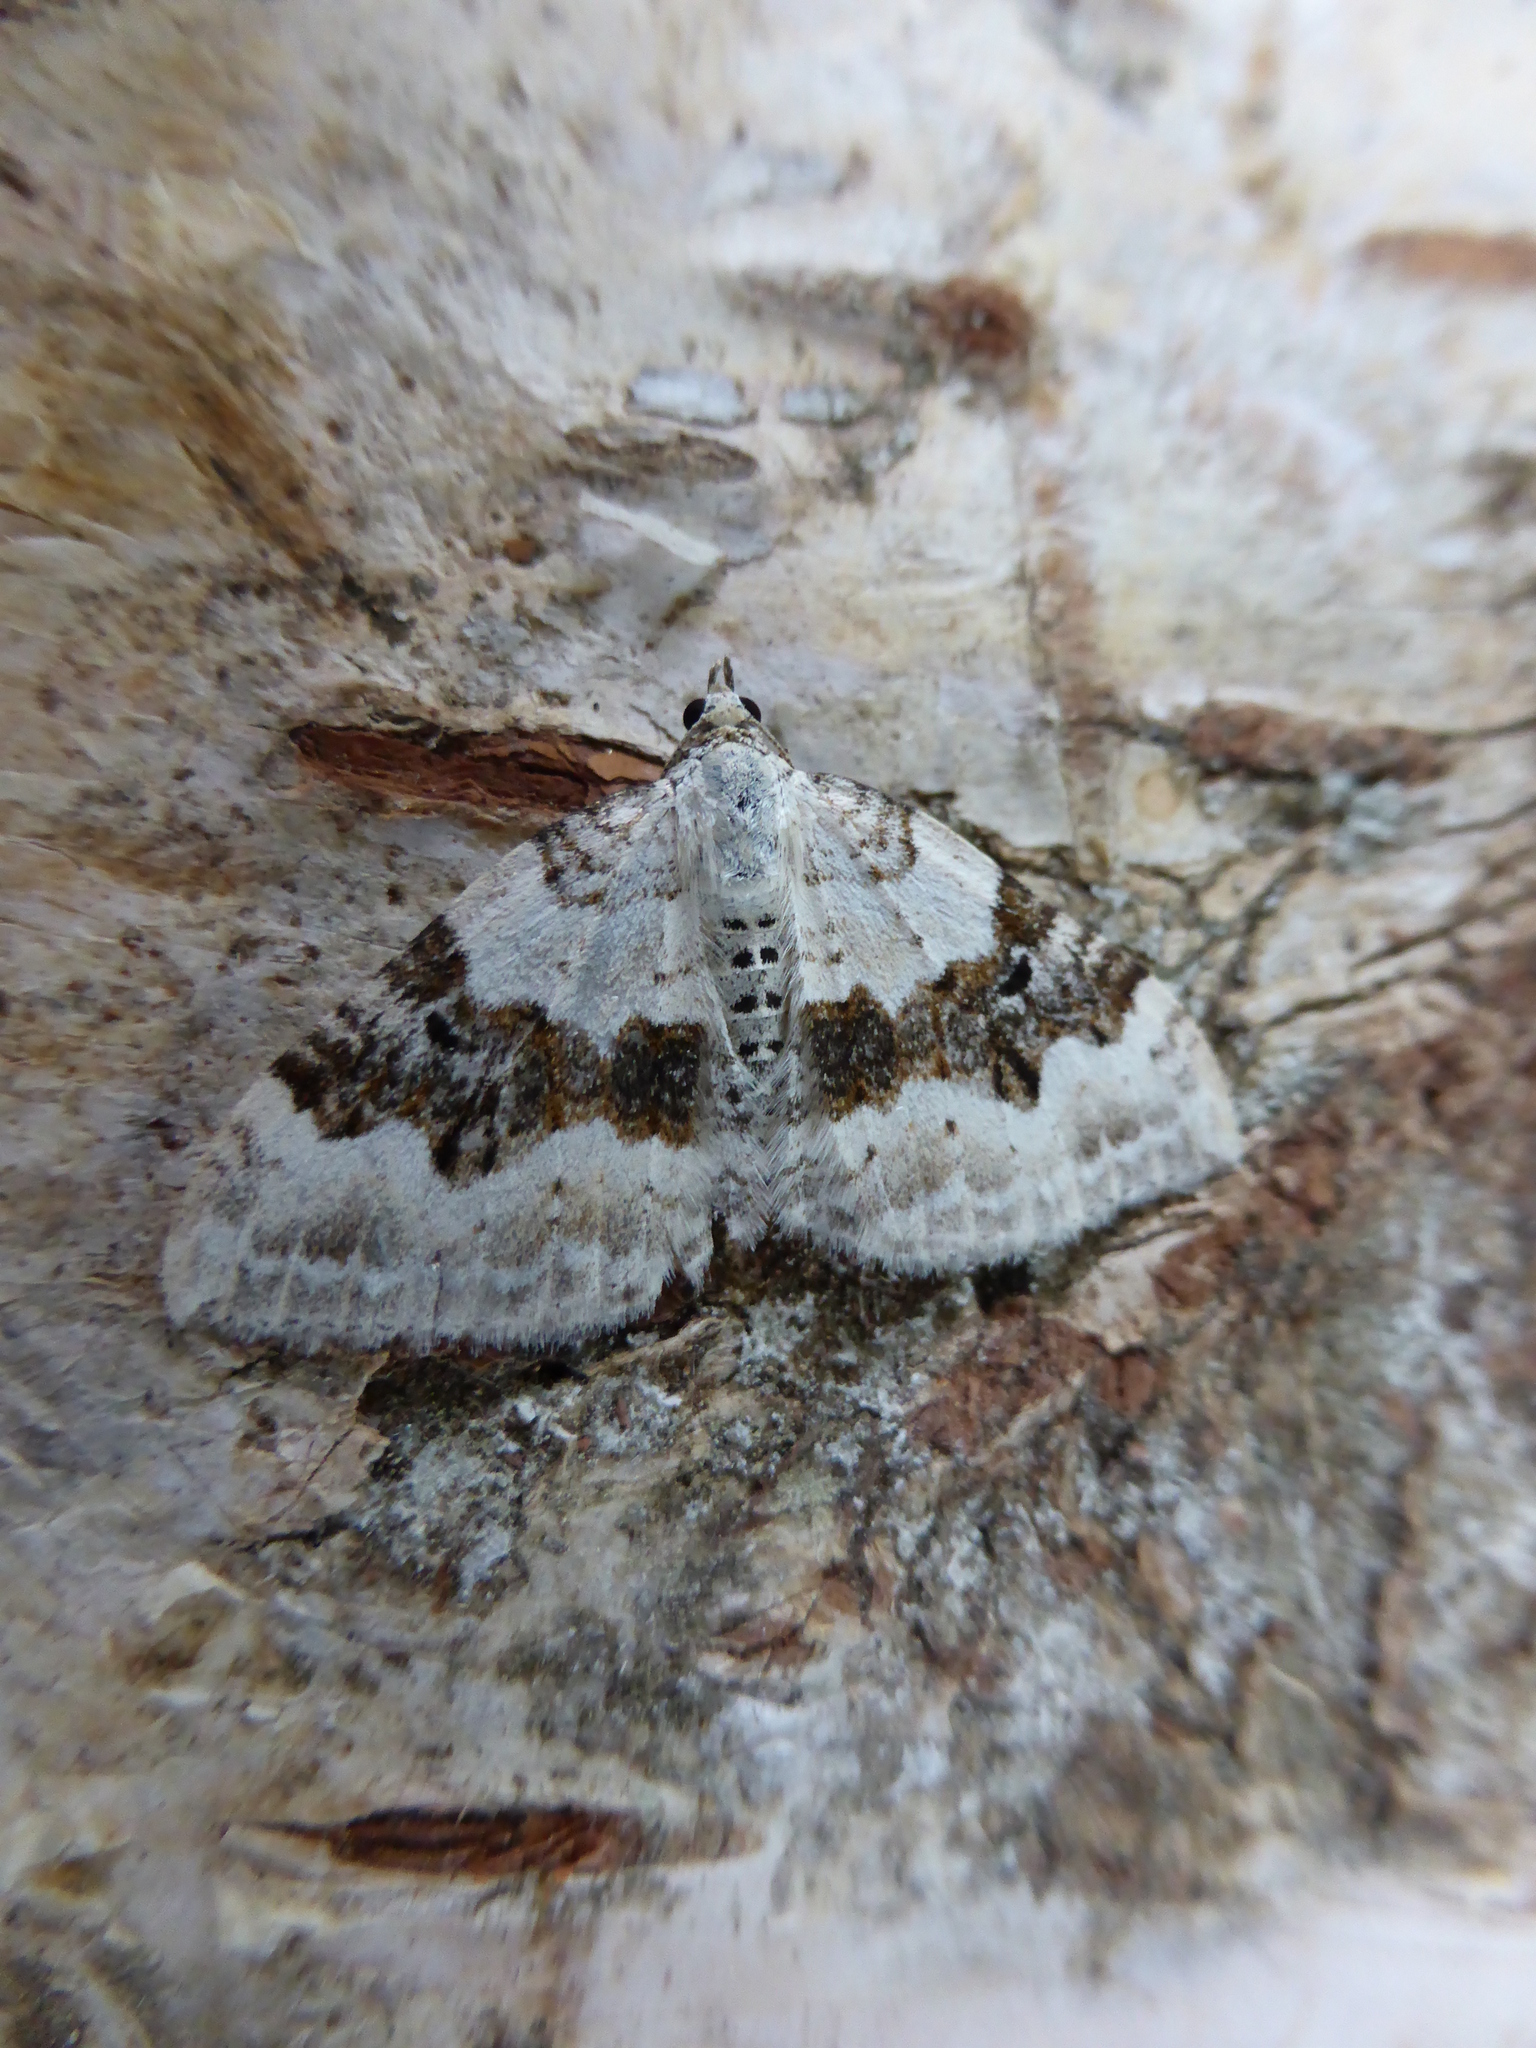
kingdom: Animalia
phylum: Arthropoda
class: Insecta
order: Lepidoptera
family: Geometridae
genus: Xanthorhoe
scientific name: Xanthorhoe montanata
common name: Silver-ground carpet
